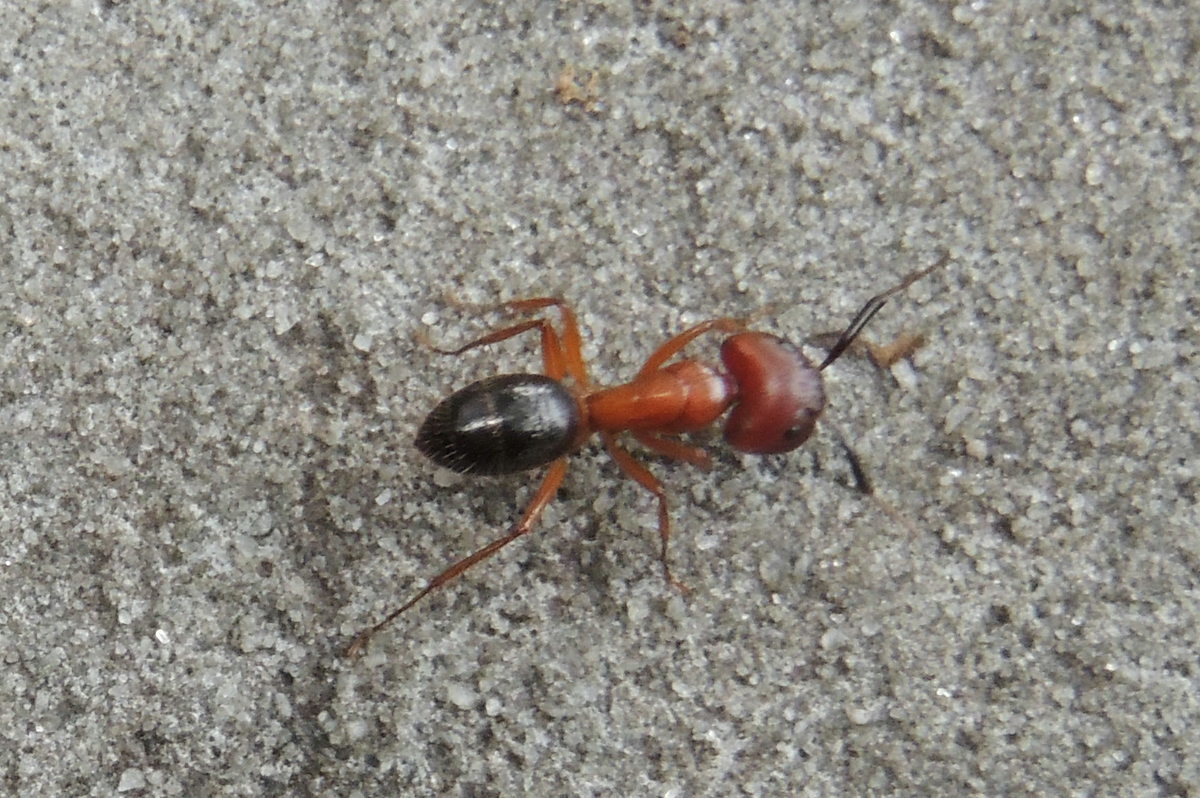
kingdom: Animalia
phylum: Arthropoda
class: Insecta
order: Hymenoptera
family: Formicidae
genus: Camponotus
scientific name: Camponotus floridanus
